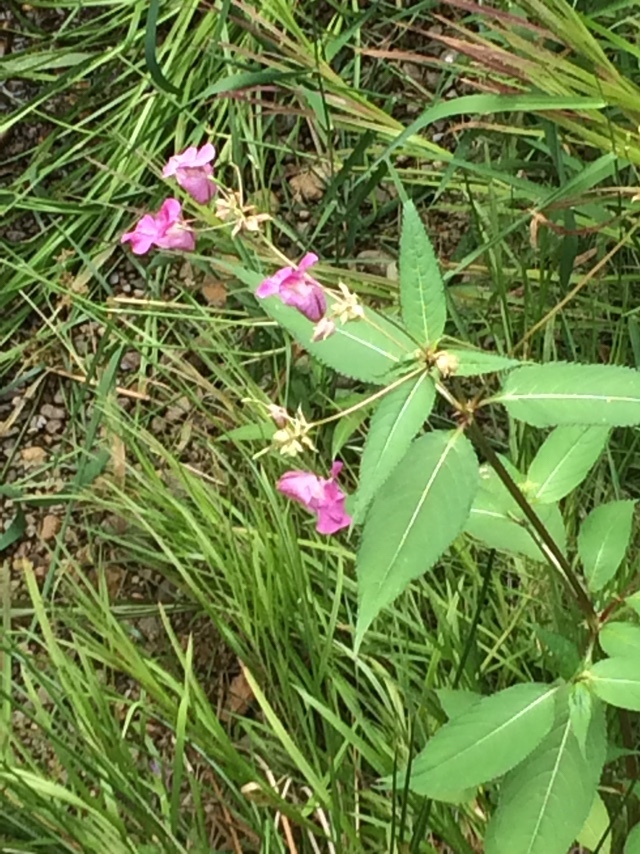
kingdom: Plantae
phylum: Tracheophyta
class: Magnoliopsida
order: Ericales
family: Balsaminaceae
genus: Impatiens
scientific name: Impatiens glandulifera
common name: Himalayan balsam
